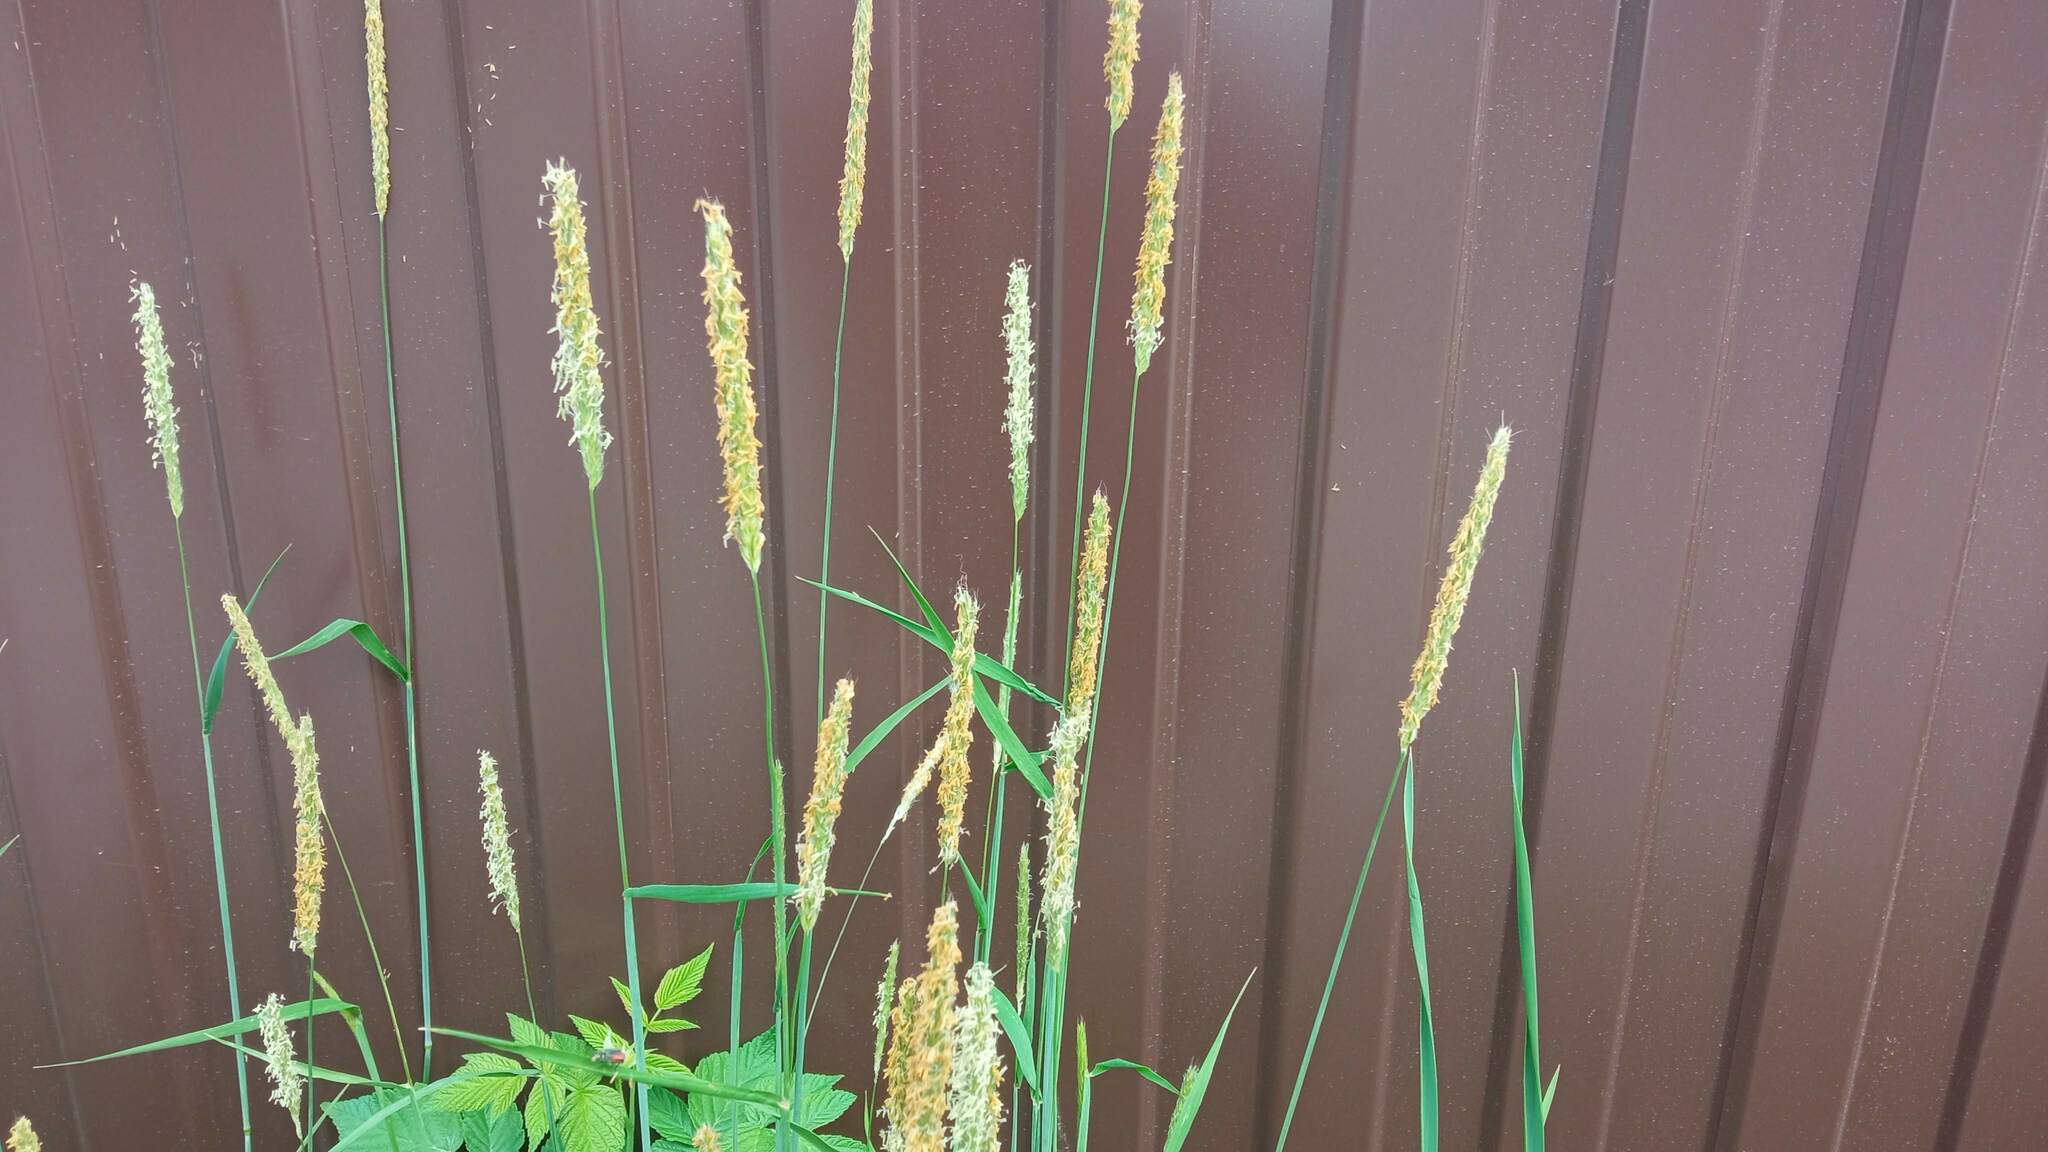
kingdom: Plantae
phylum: Tracheophyta
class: Liliopsida
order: Poales
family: Poaceae
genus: Alopecurus
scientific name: Alopecurus pratensis
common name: Meadow foxtail
